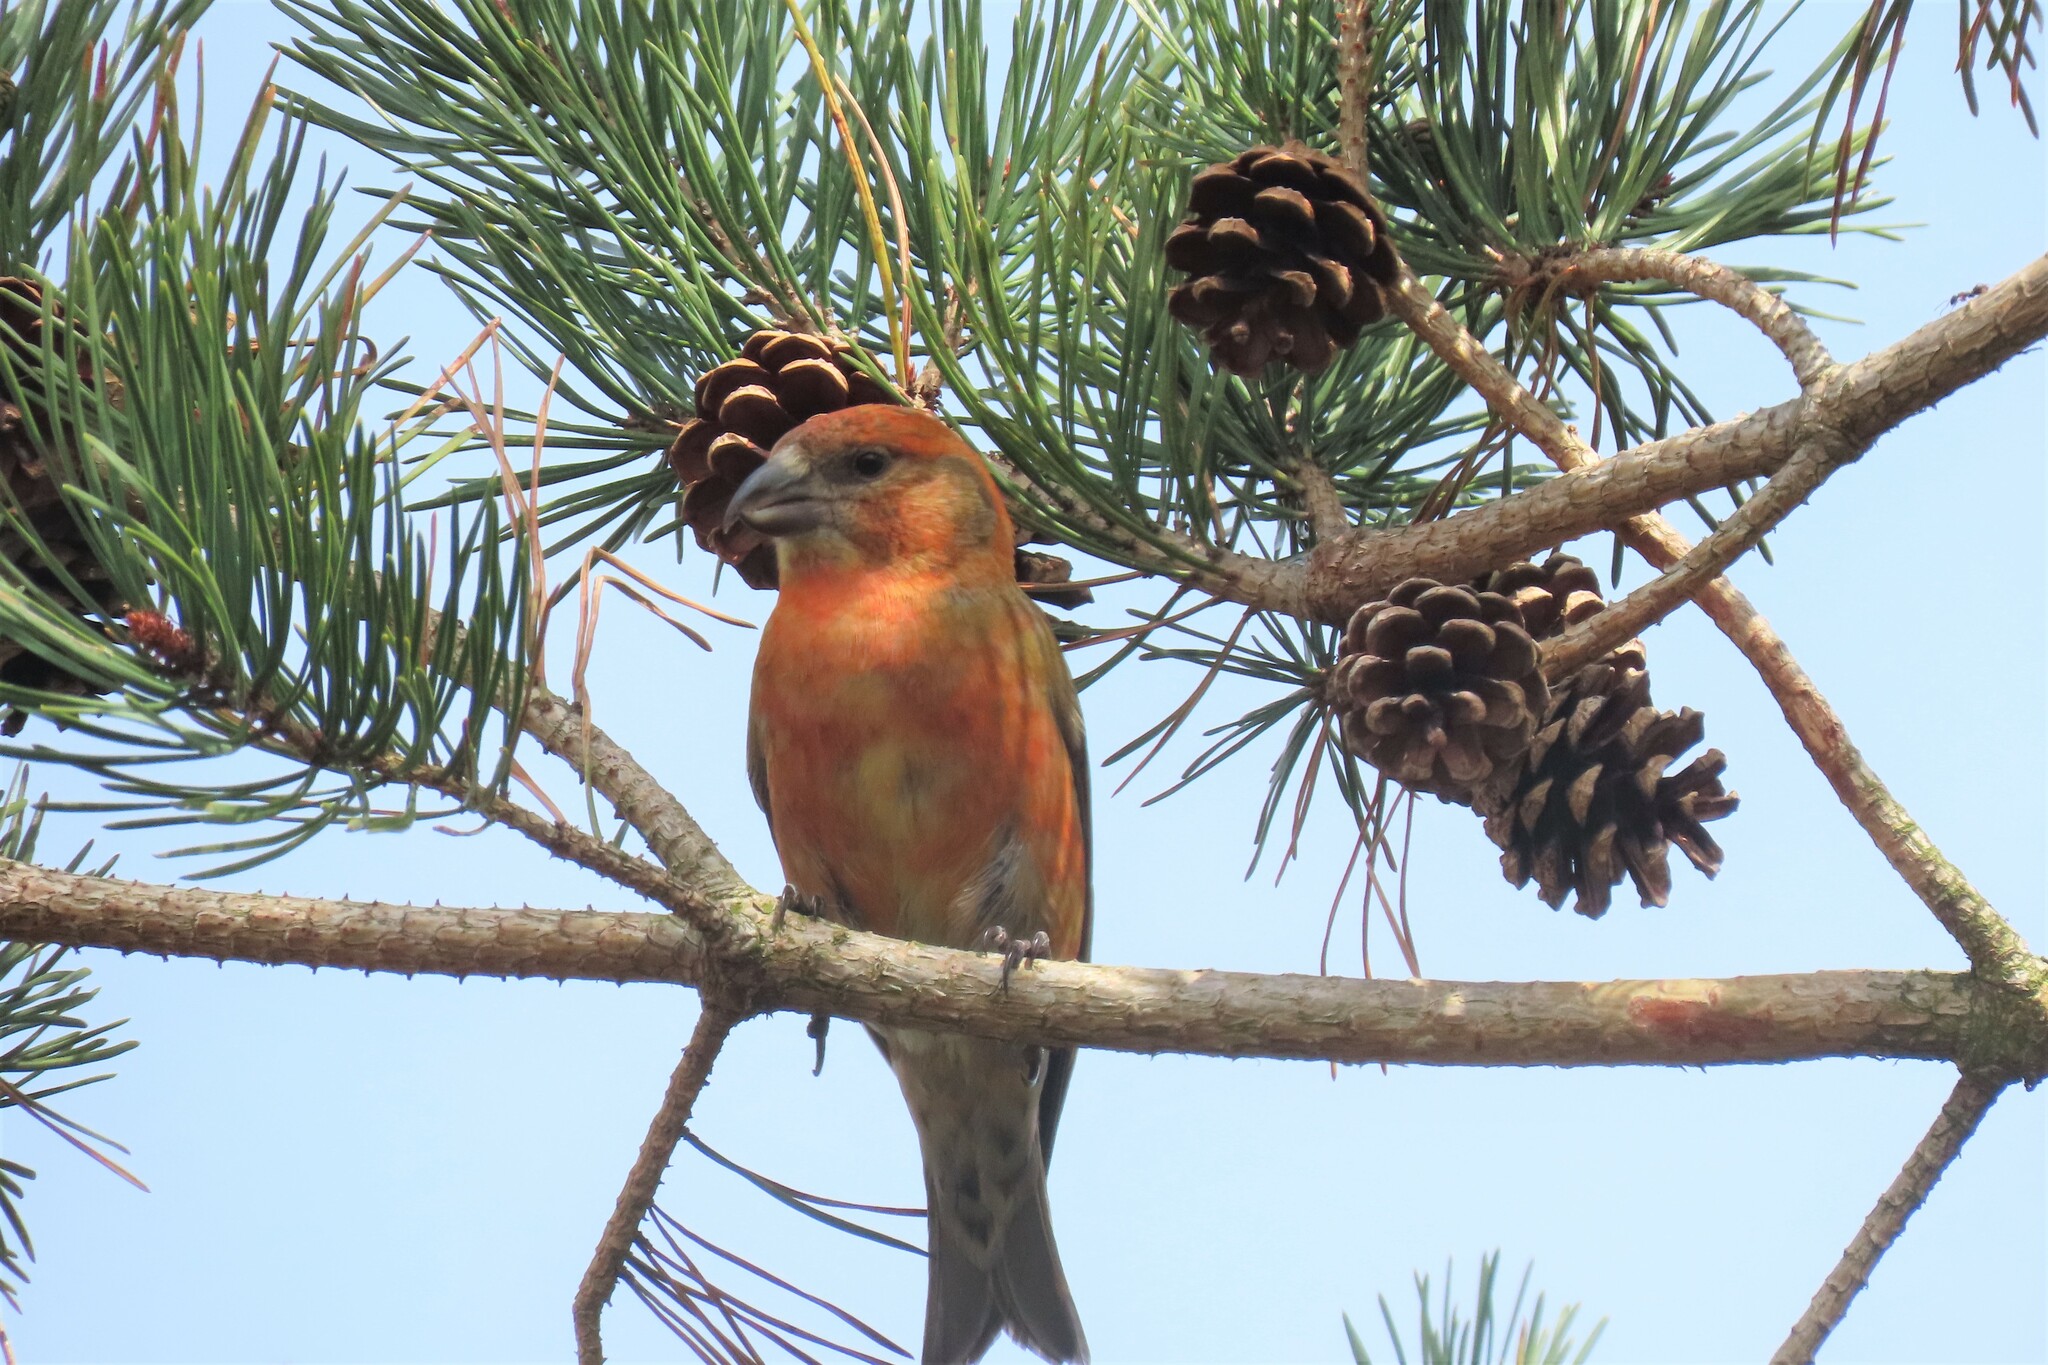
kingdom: Animalia
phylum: Chordata
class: Aves
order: Passeriformes
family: Fringillidae
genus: Loxia
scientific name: Loxia curvirostra
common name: Red crossbill
